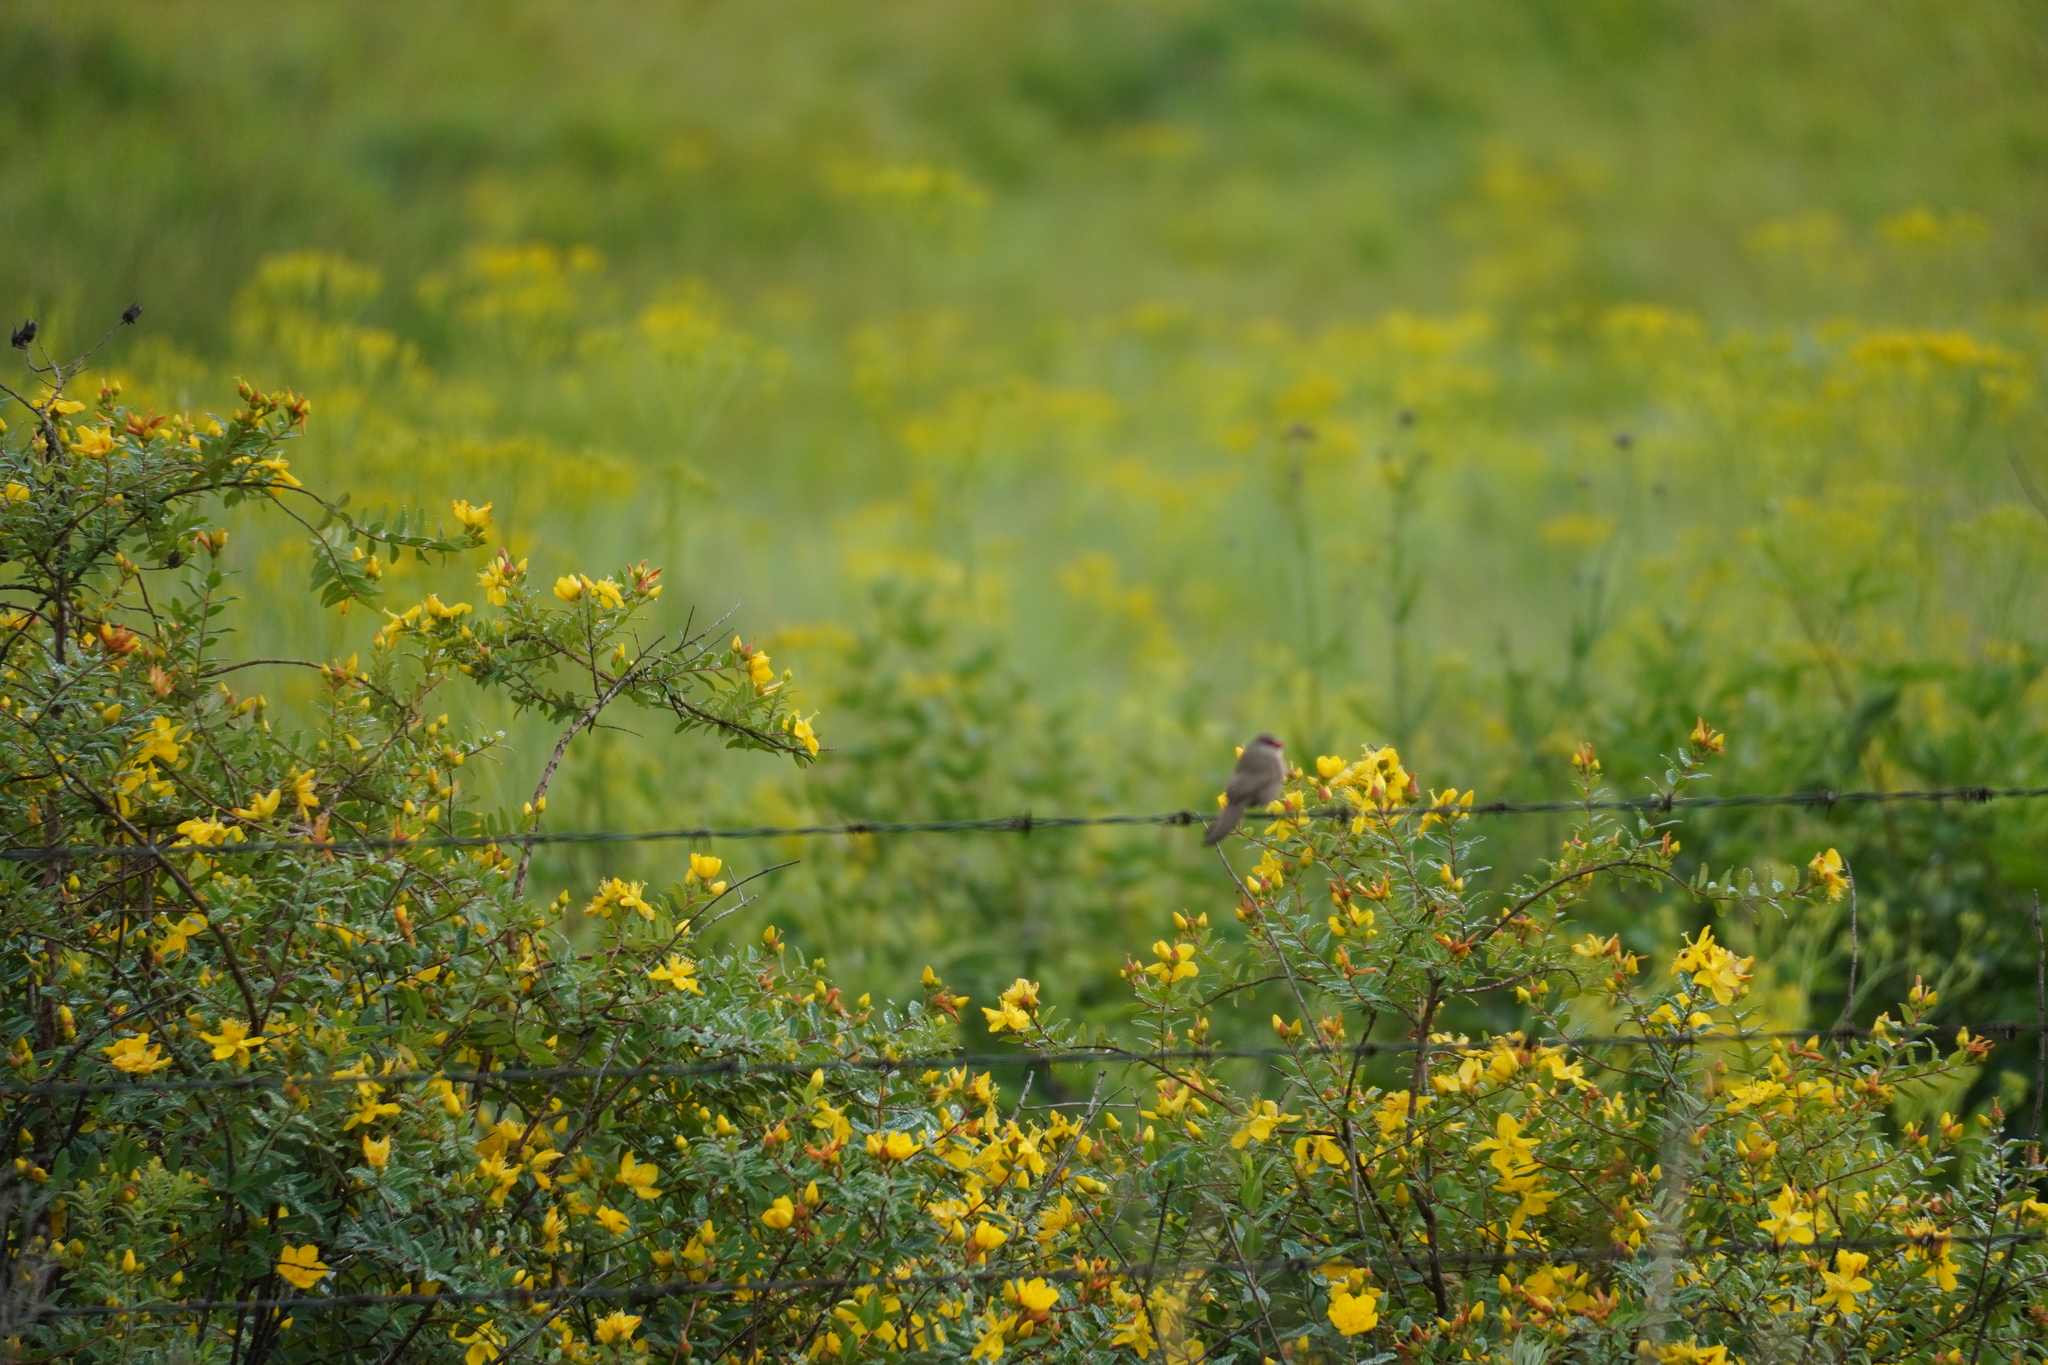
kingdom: Animalia
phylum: Chordata
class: Aves
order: Passeriformes
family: Estrildidae
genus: Estrilda
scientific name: Estrilda astrild
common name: Common waxbill
